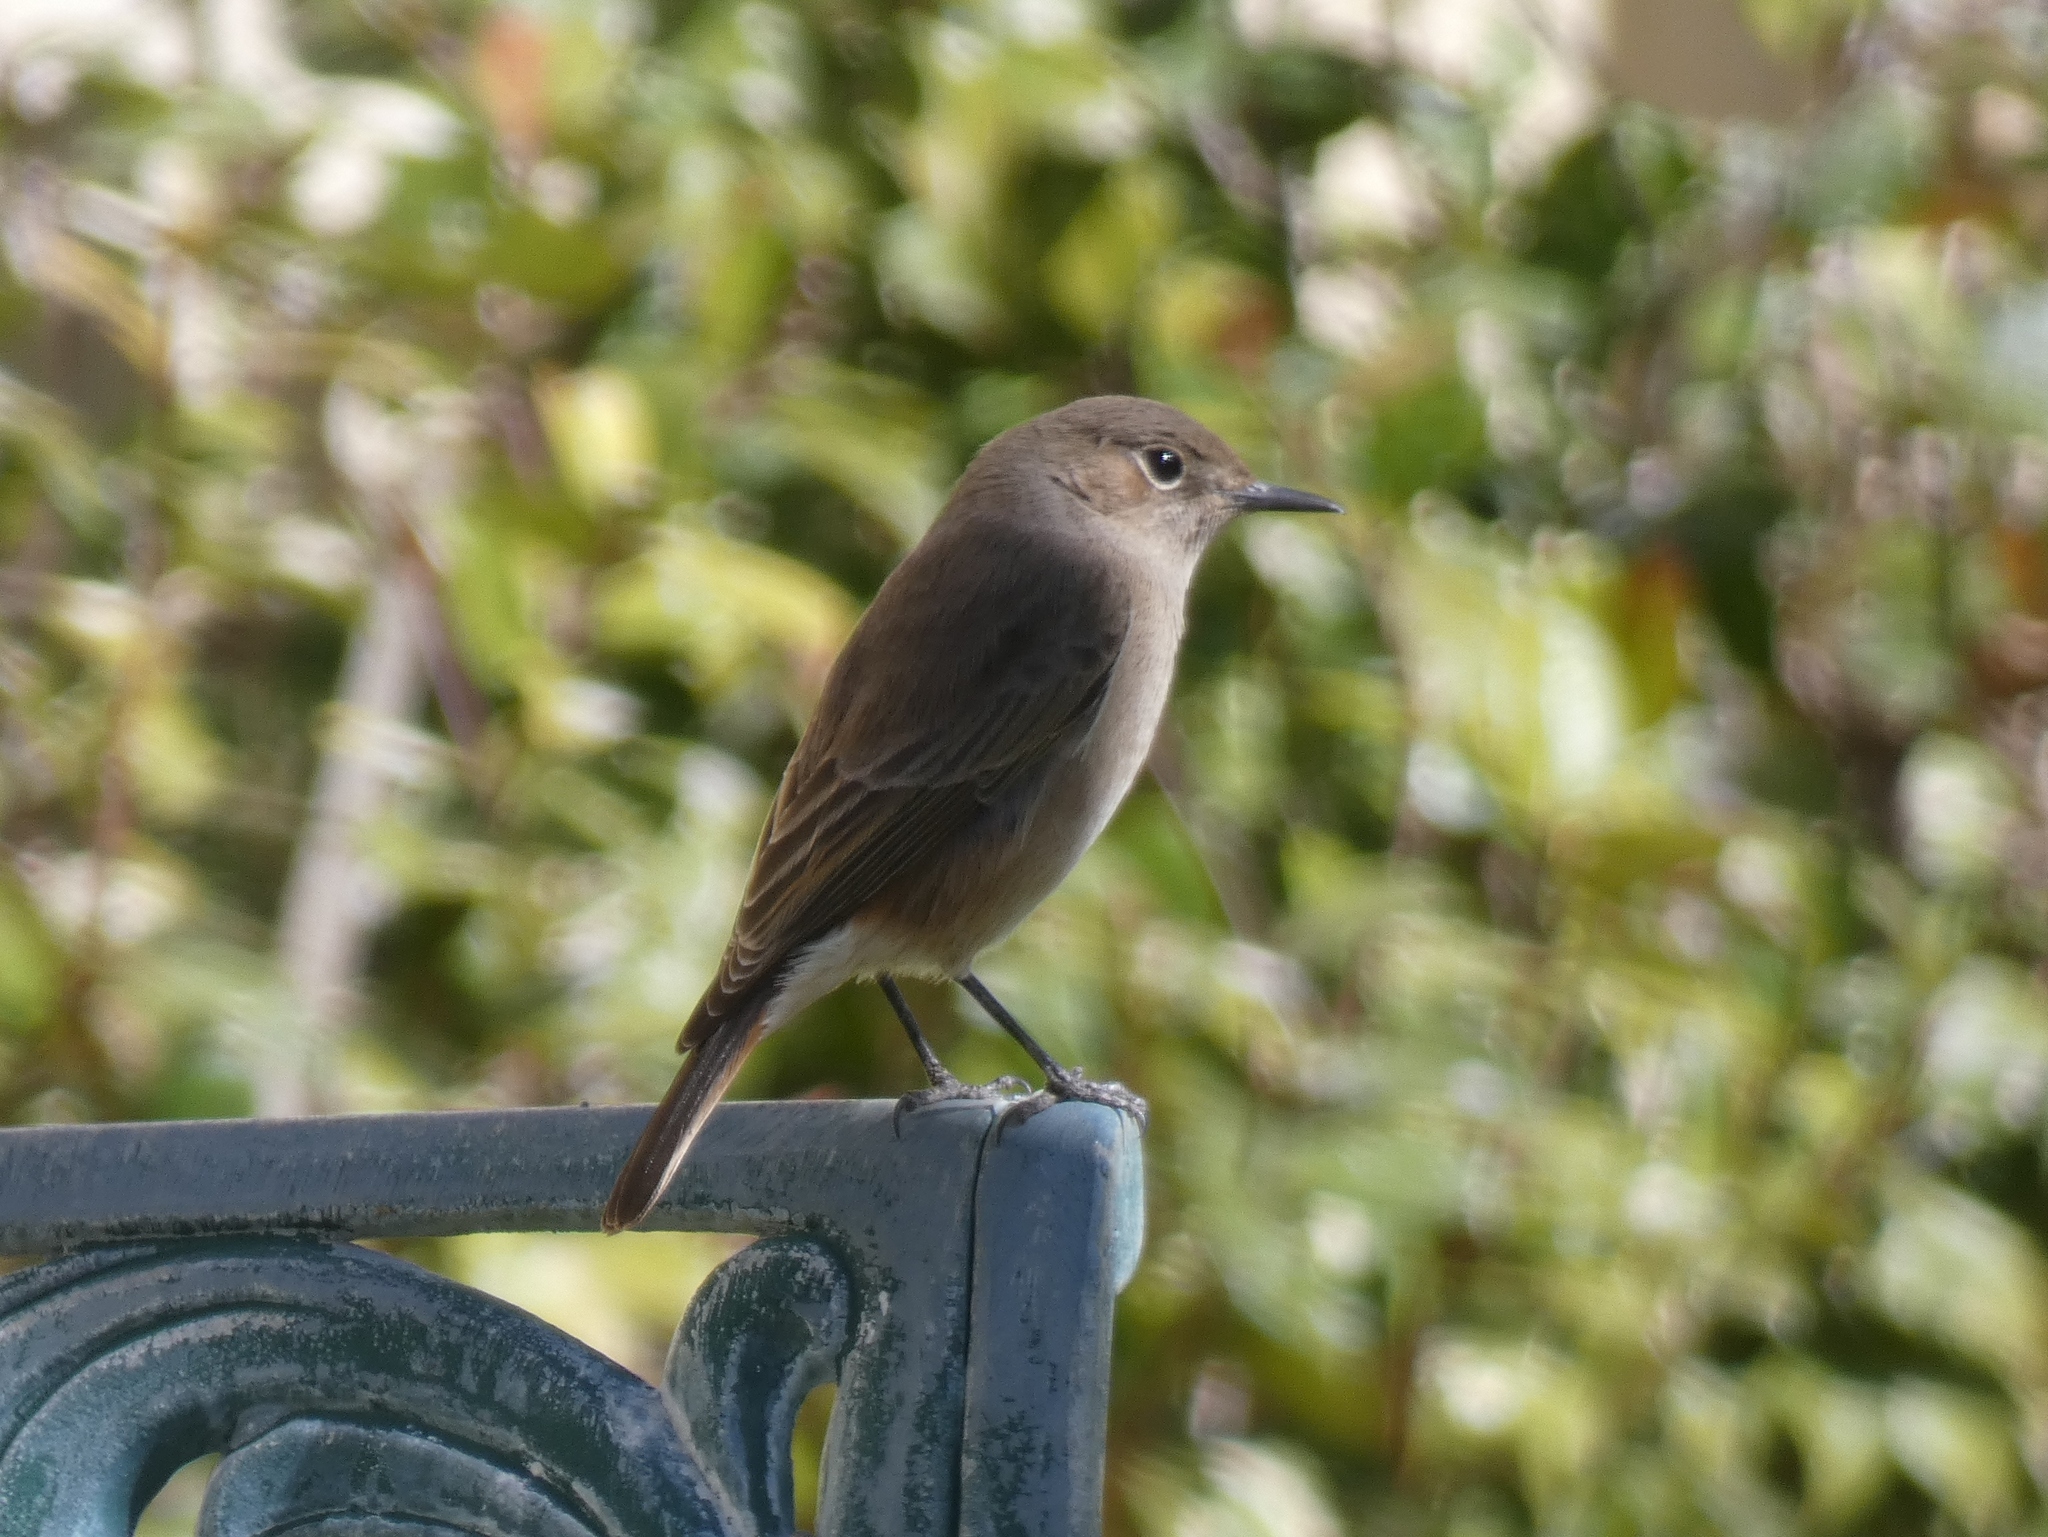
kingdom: Animalia
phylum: Chordata
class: Aves
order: Passeriformes
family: Muscicapidae
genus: Oenanthe
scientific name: Oenanthe familiaris
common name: Familiar chat
